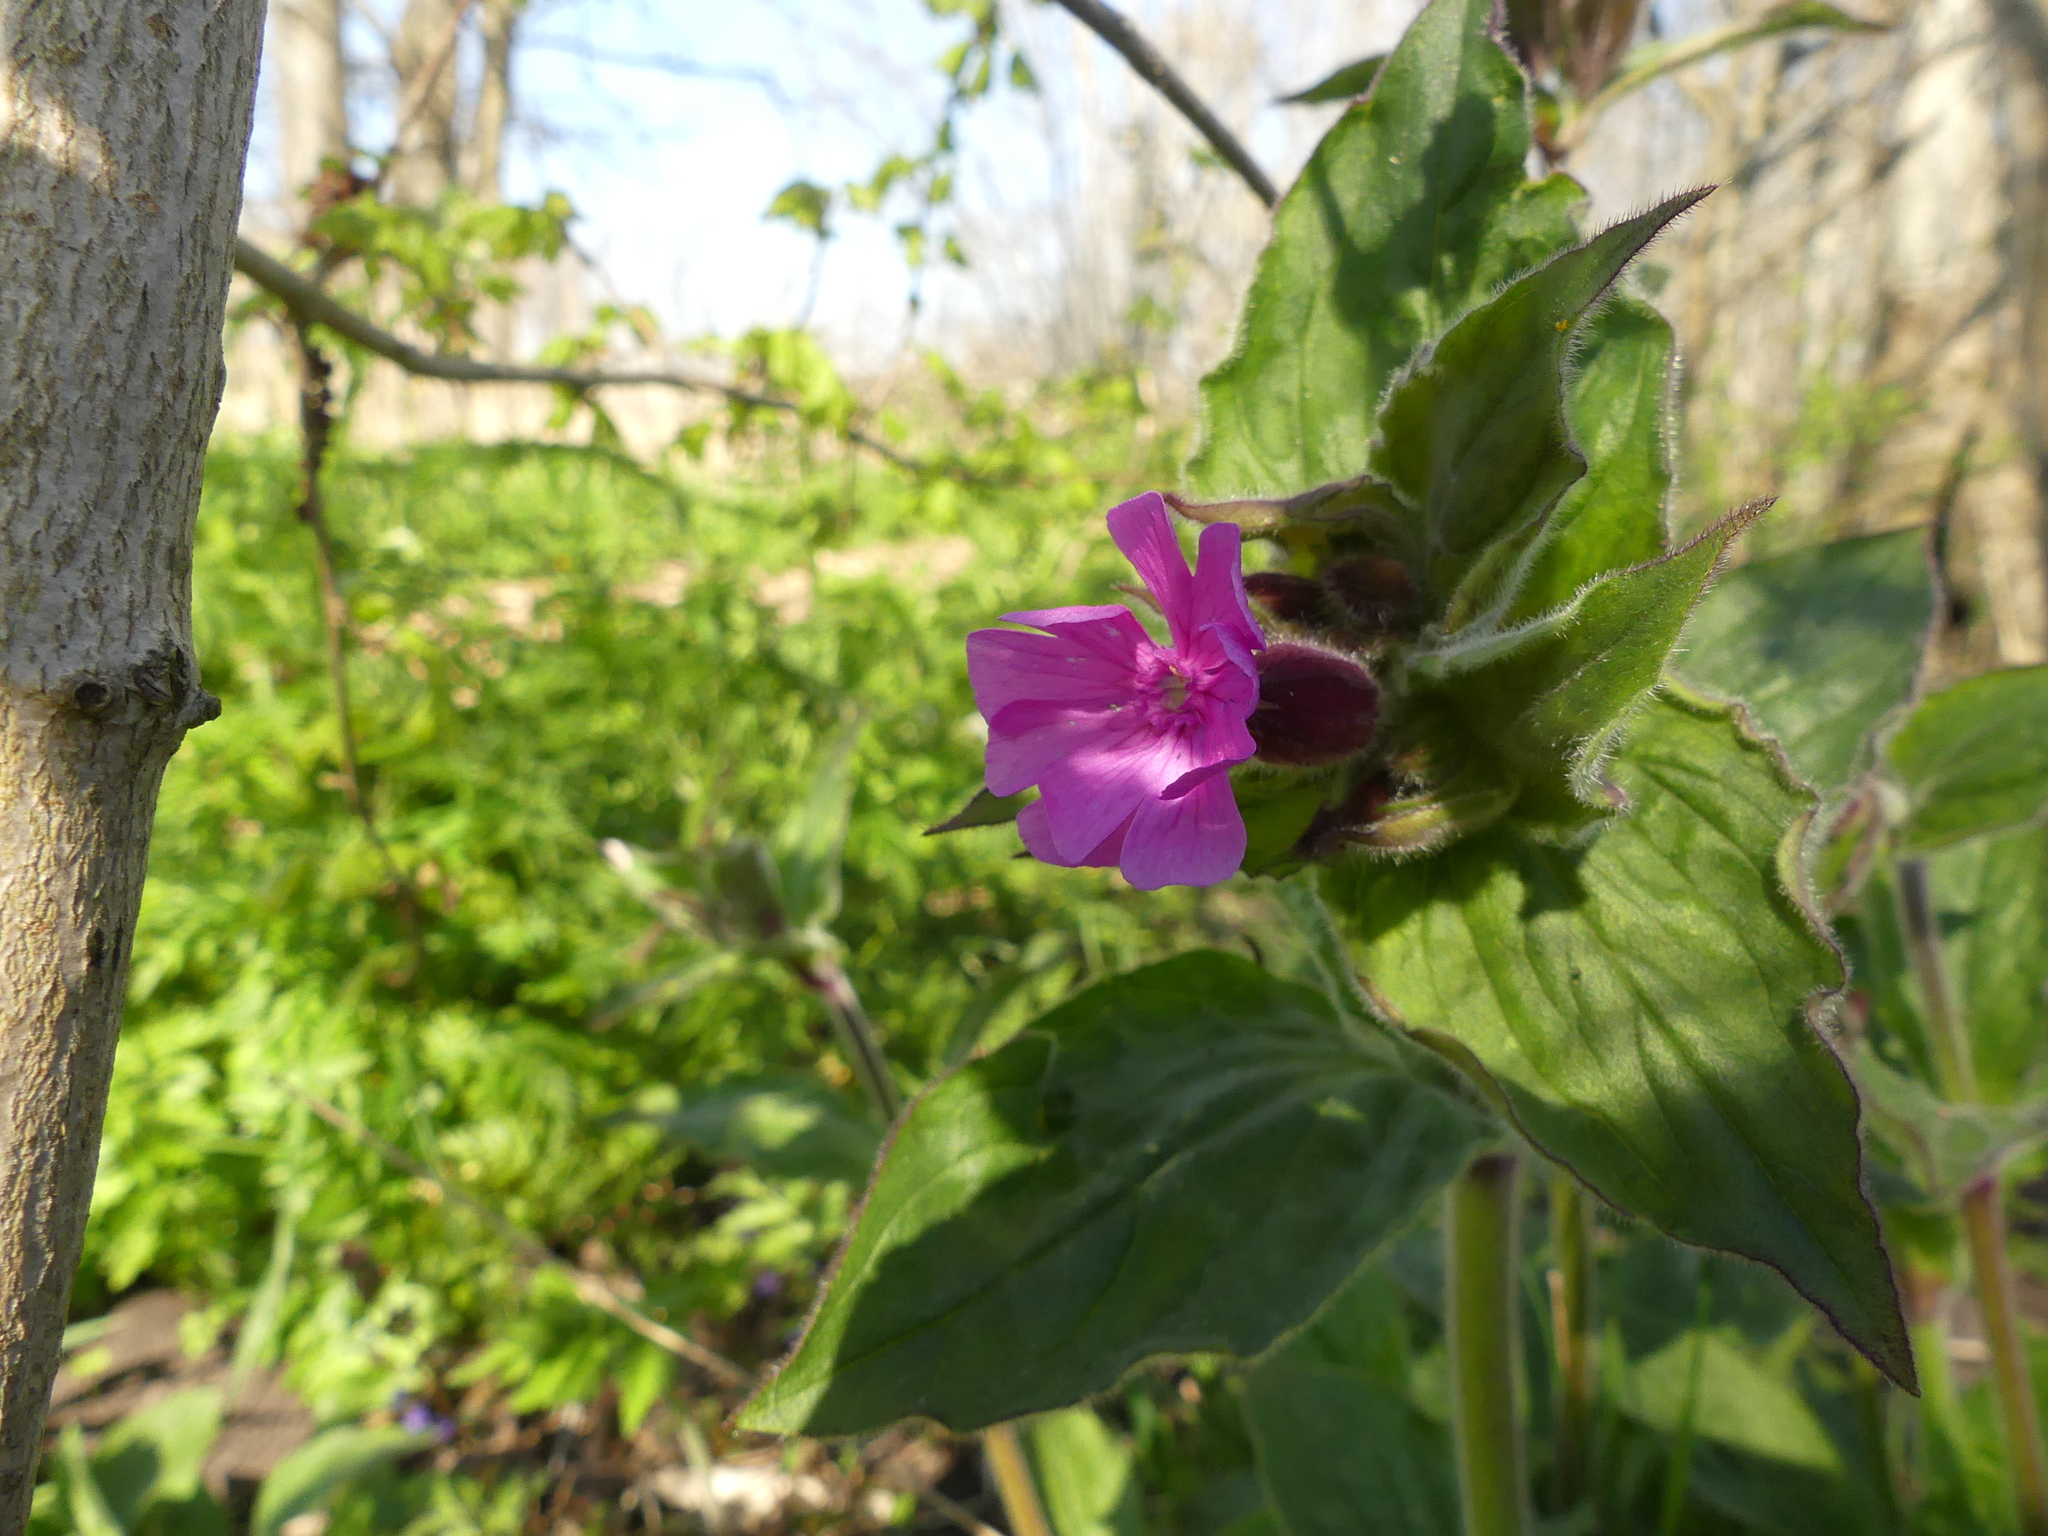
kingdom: Plantae
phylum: Tracheophyta
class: Magnoliopsida
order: Caryophyllales
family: Caryophyllaceae
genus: Silene
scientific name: Silene dioica
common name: Red campion
